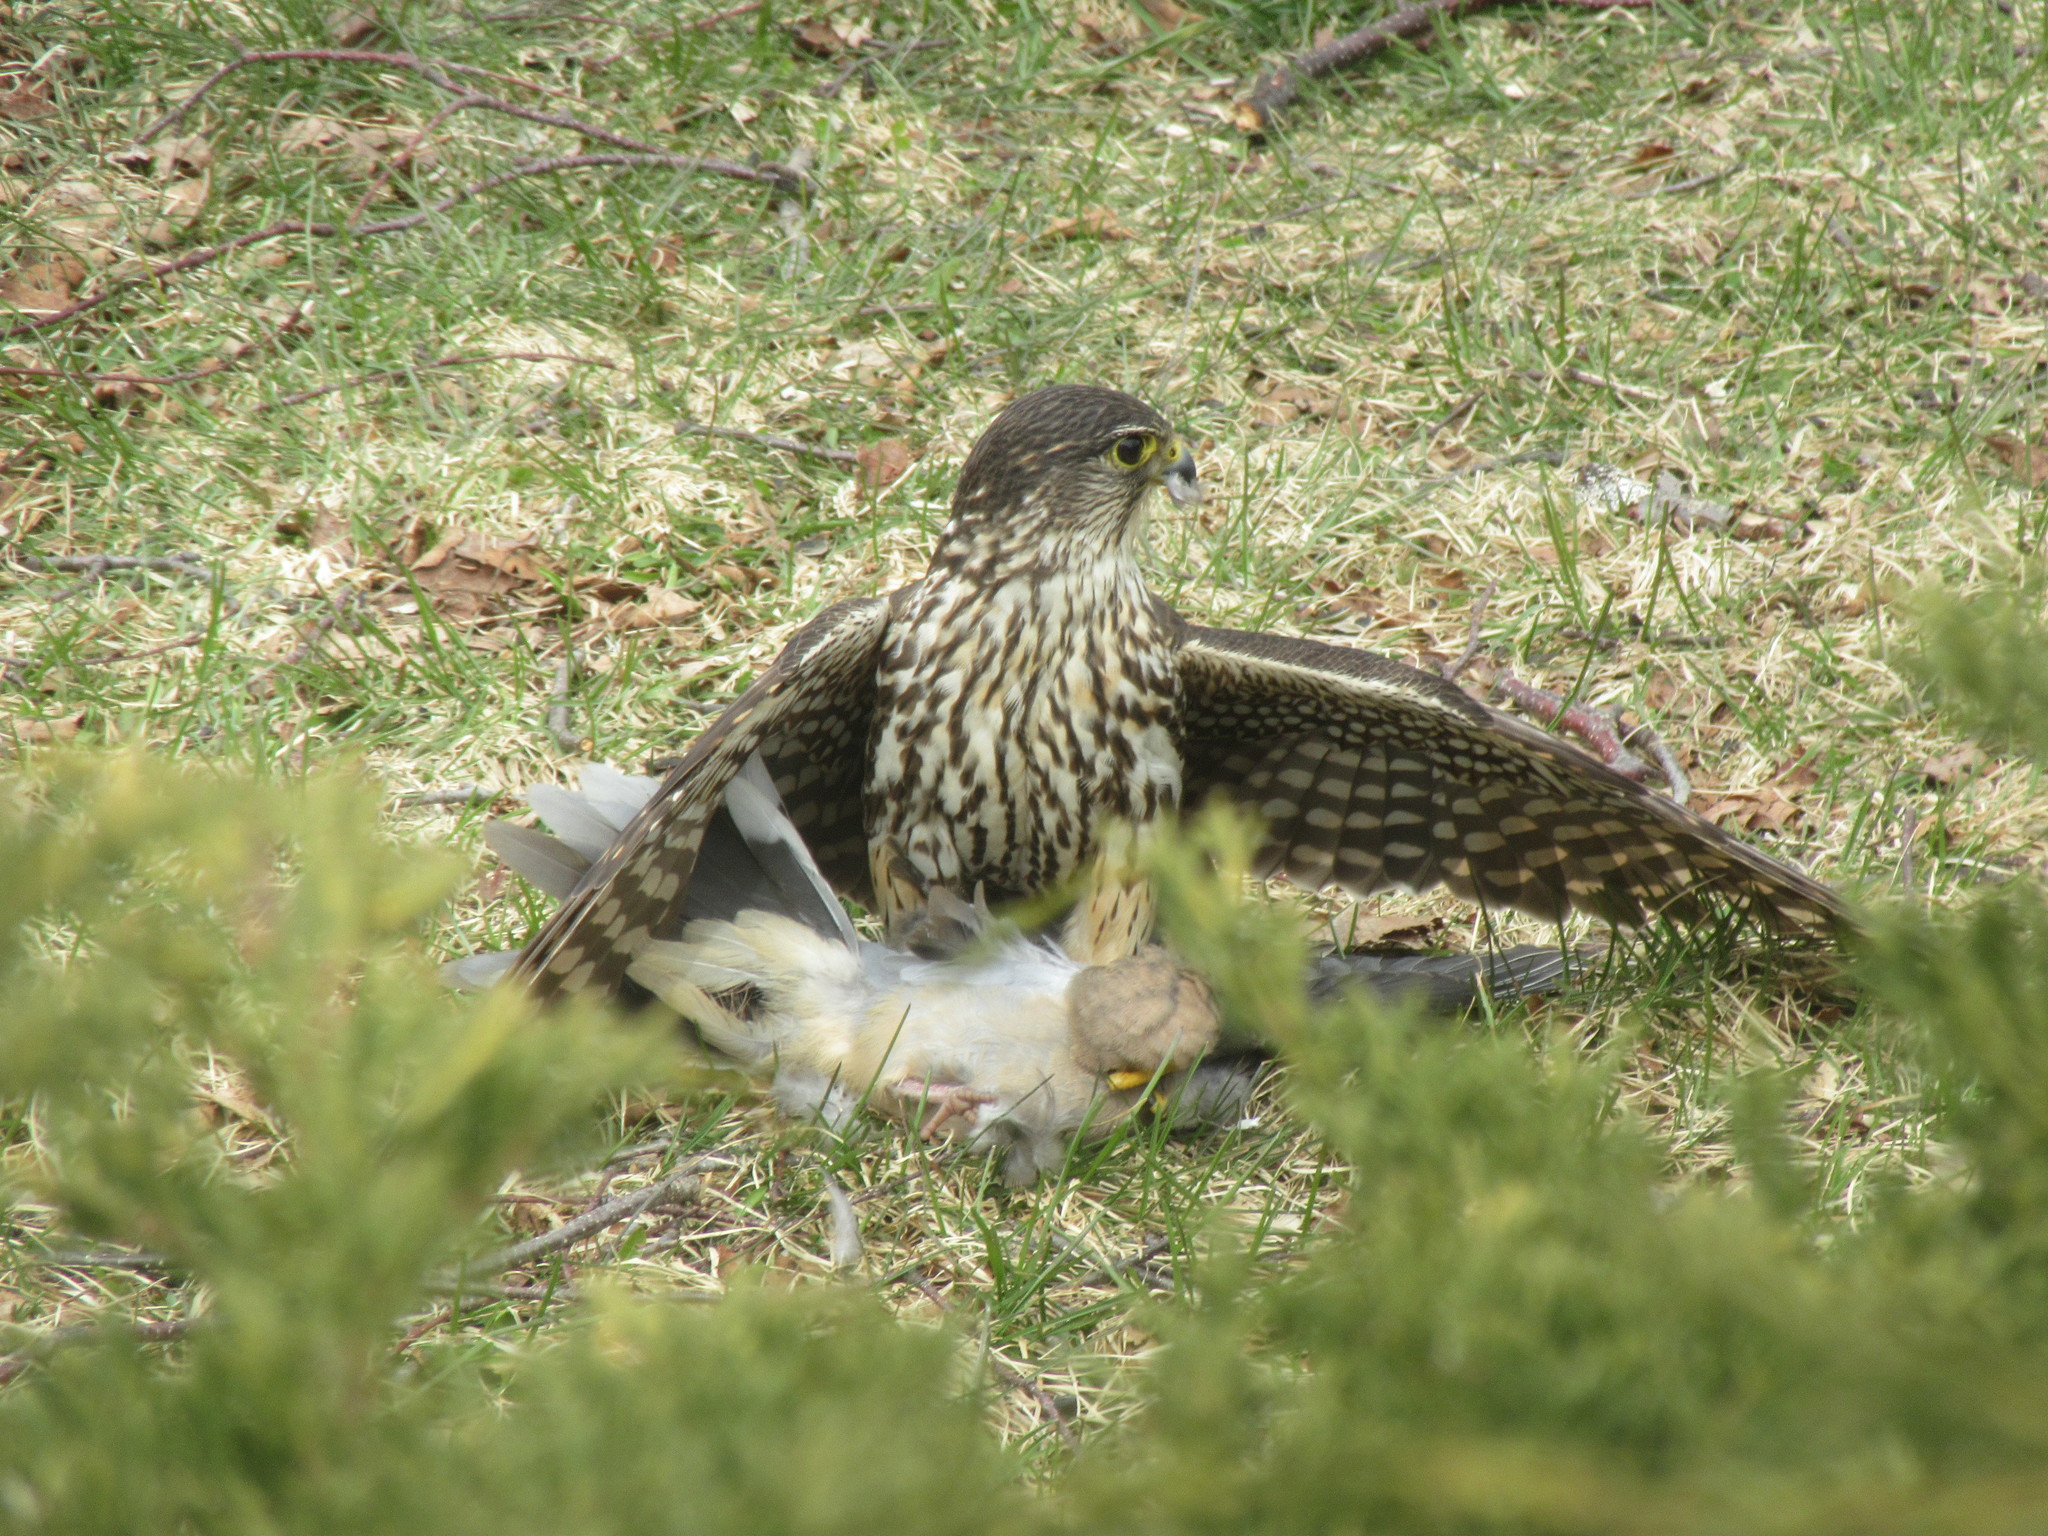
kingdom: Animalia
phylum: Chordata
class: Aves
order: Falconiformes
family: Falconidae
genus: Falco
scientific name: Falco columbarius
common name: Merlin
